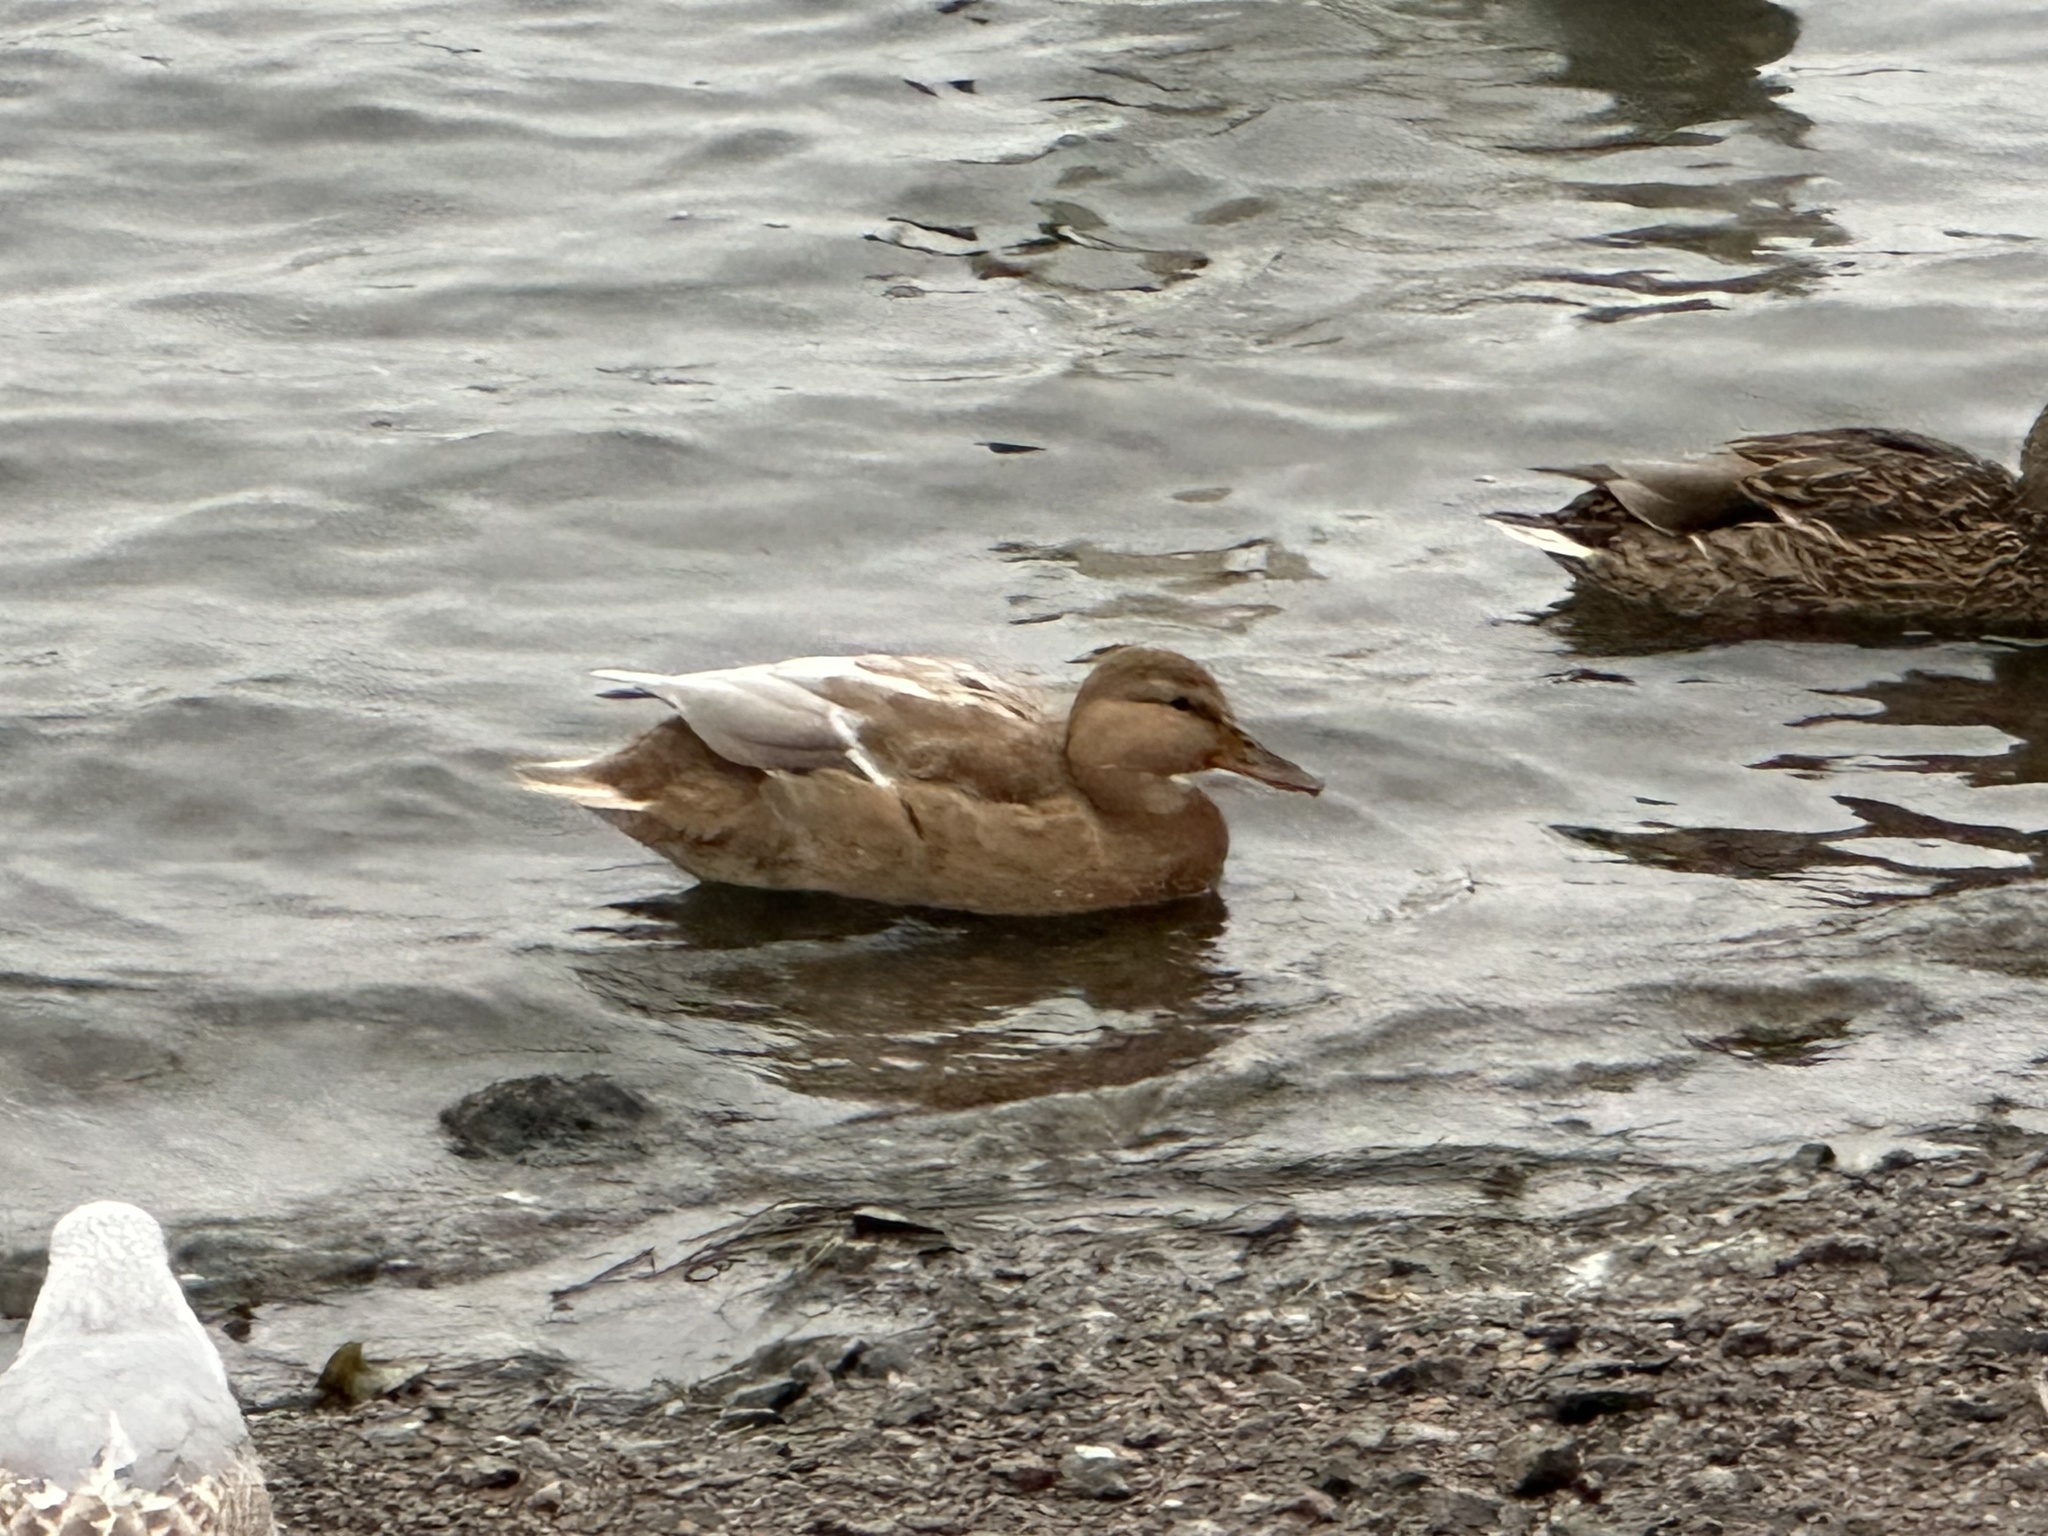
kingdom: Animalia
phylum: Chordata
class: Aves
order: Anseriformes
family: Anatidae
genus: Anas
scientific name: Anas platyrhynchos
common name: Mallard
